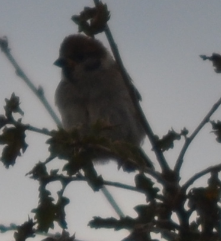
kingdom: Animalia
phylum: Chordata
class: Aves
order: Passeriformes
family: Passeridae
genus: Passer
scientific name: Passer montanus
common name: Eurasian tree sparrow
